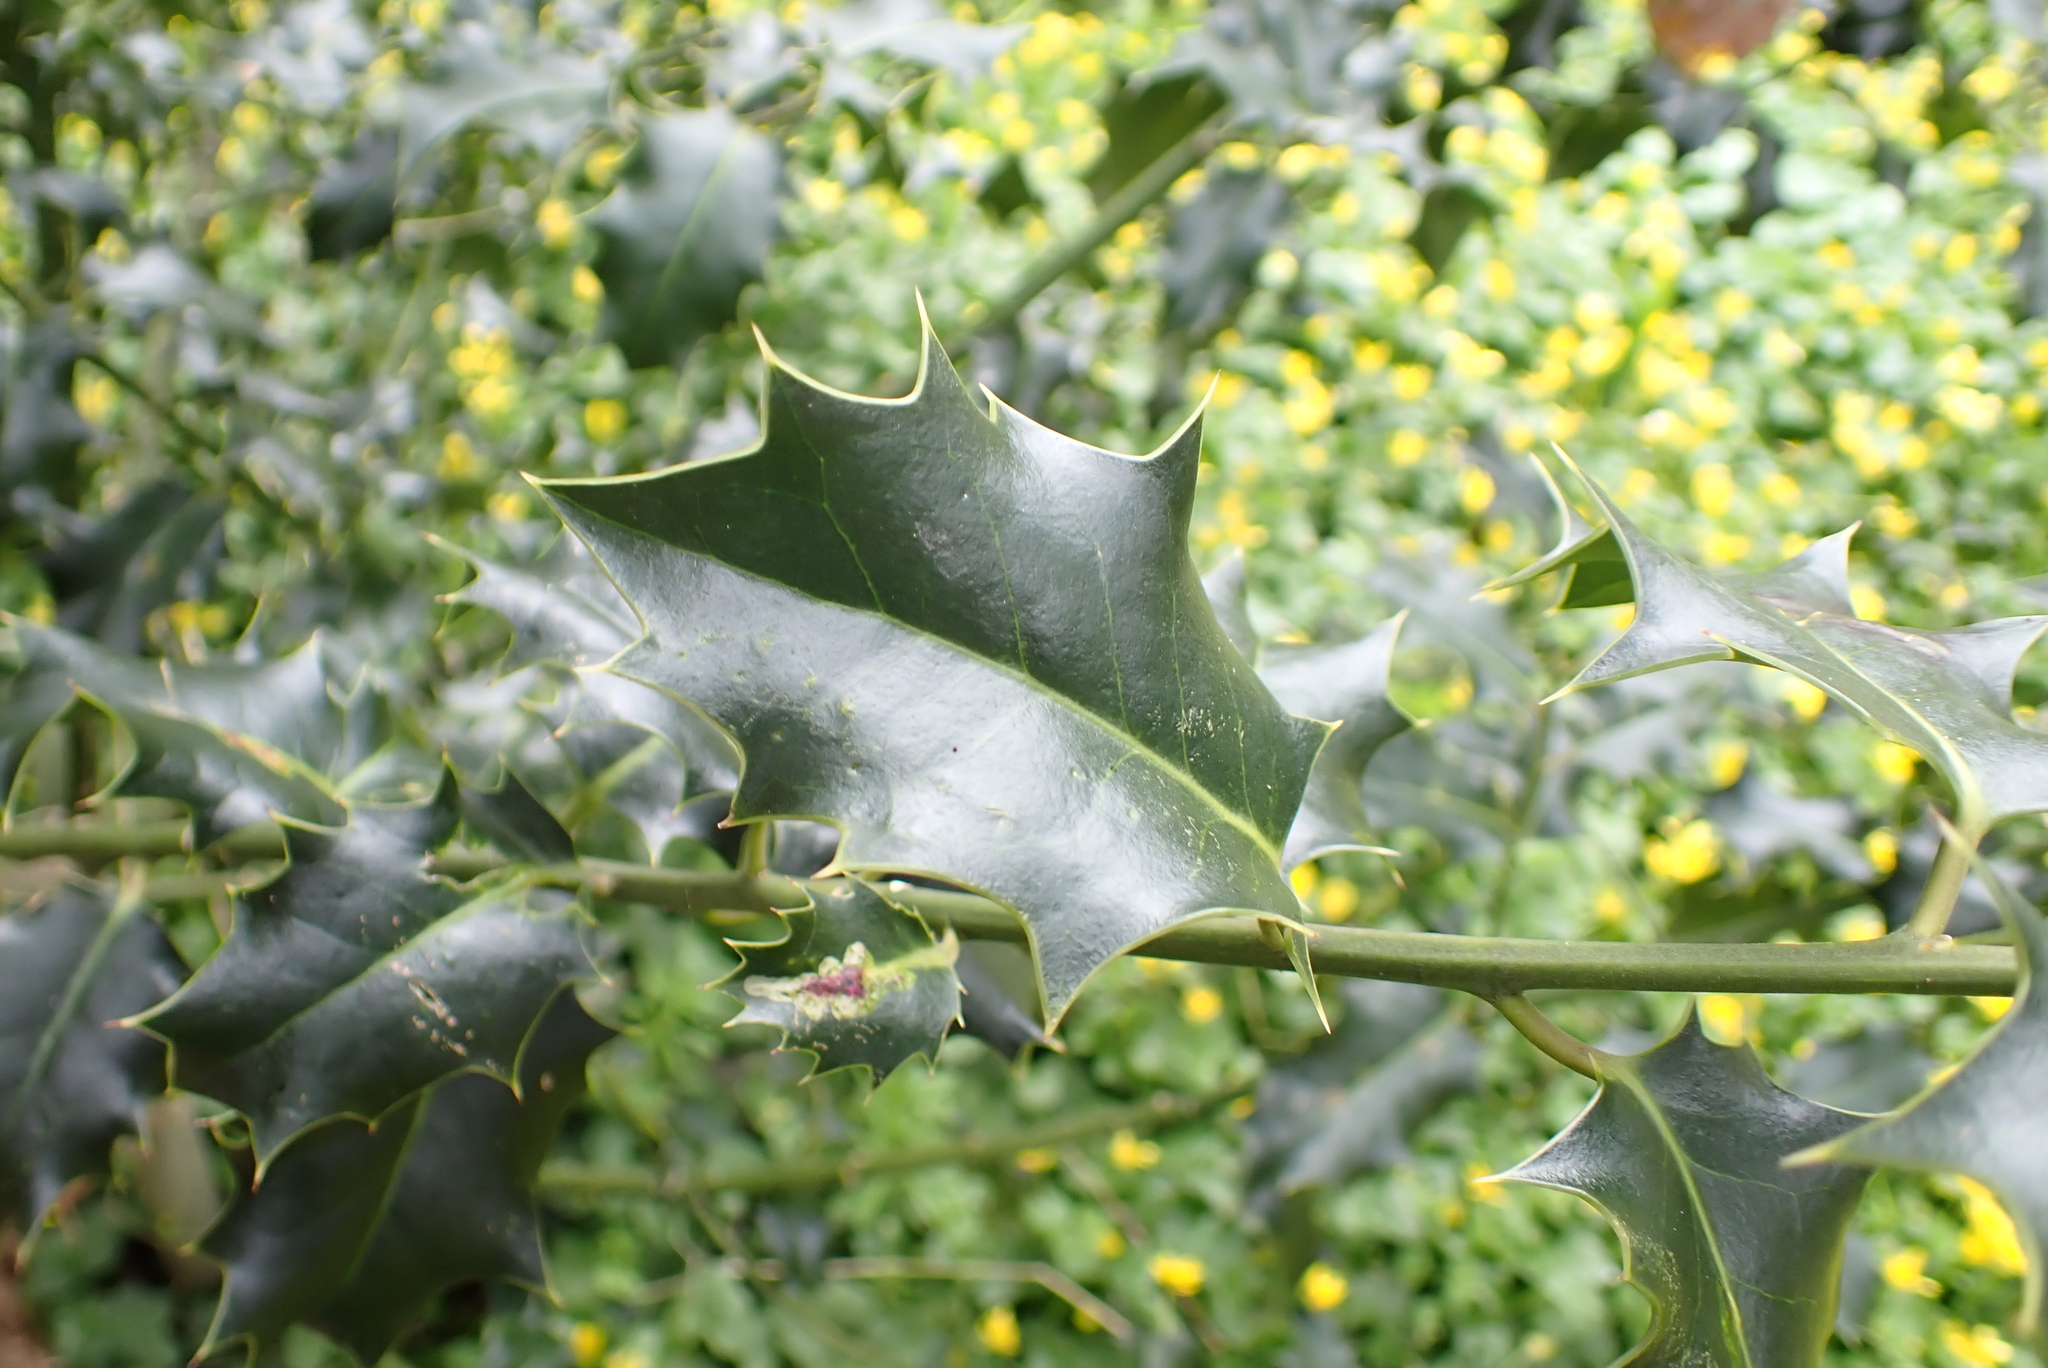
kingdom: Plantae
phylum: Tracheophyta
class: Magnoliopsida
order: Aquifoliales
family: Aquifoliaceae
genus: Ilex
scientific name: Ilex aquifolium
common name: English holly
